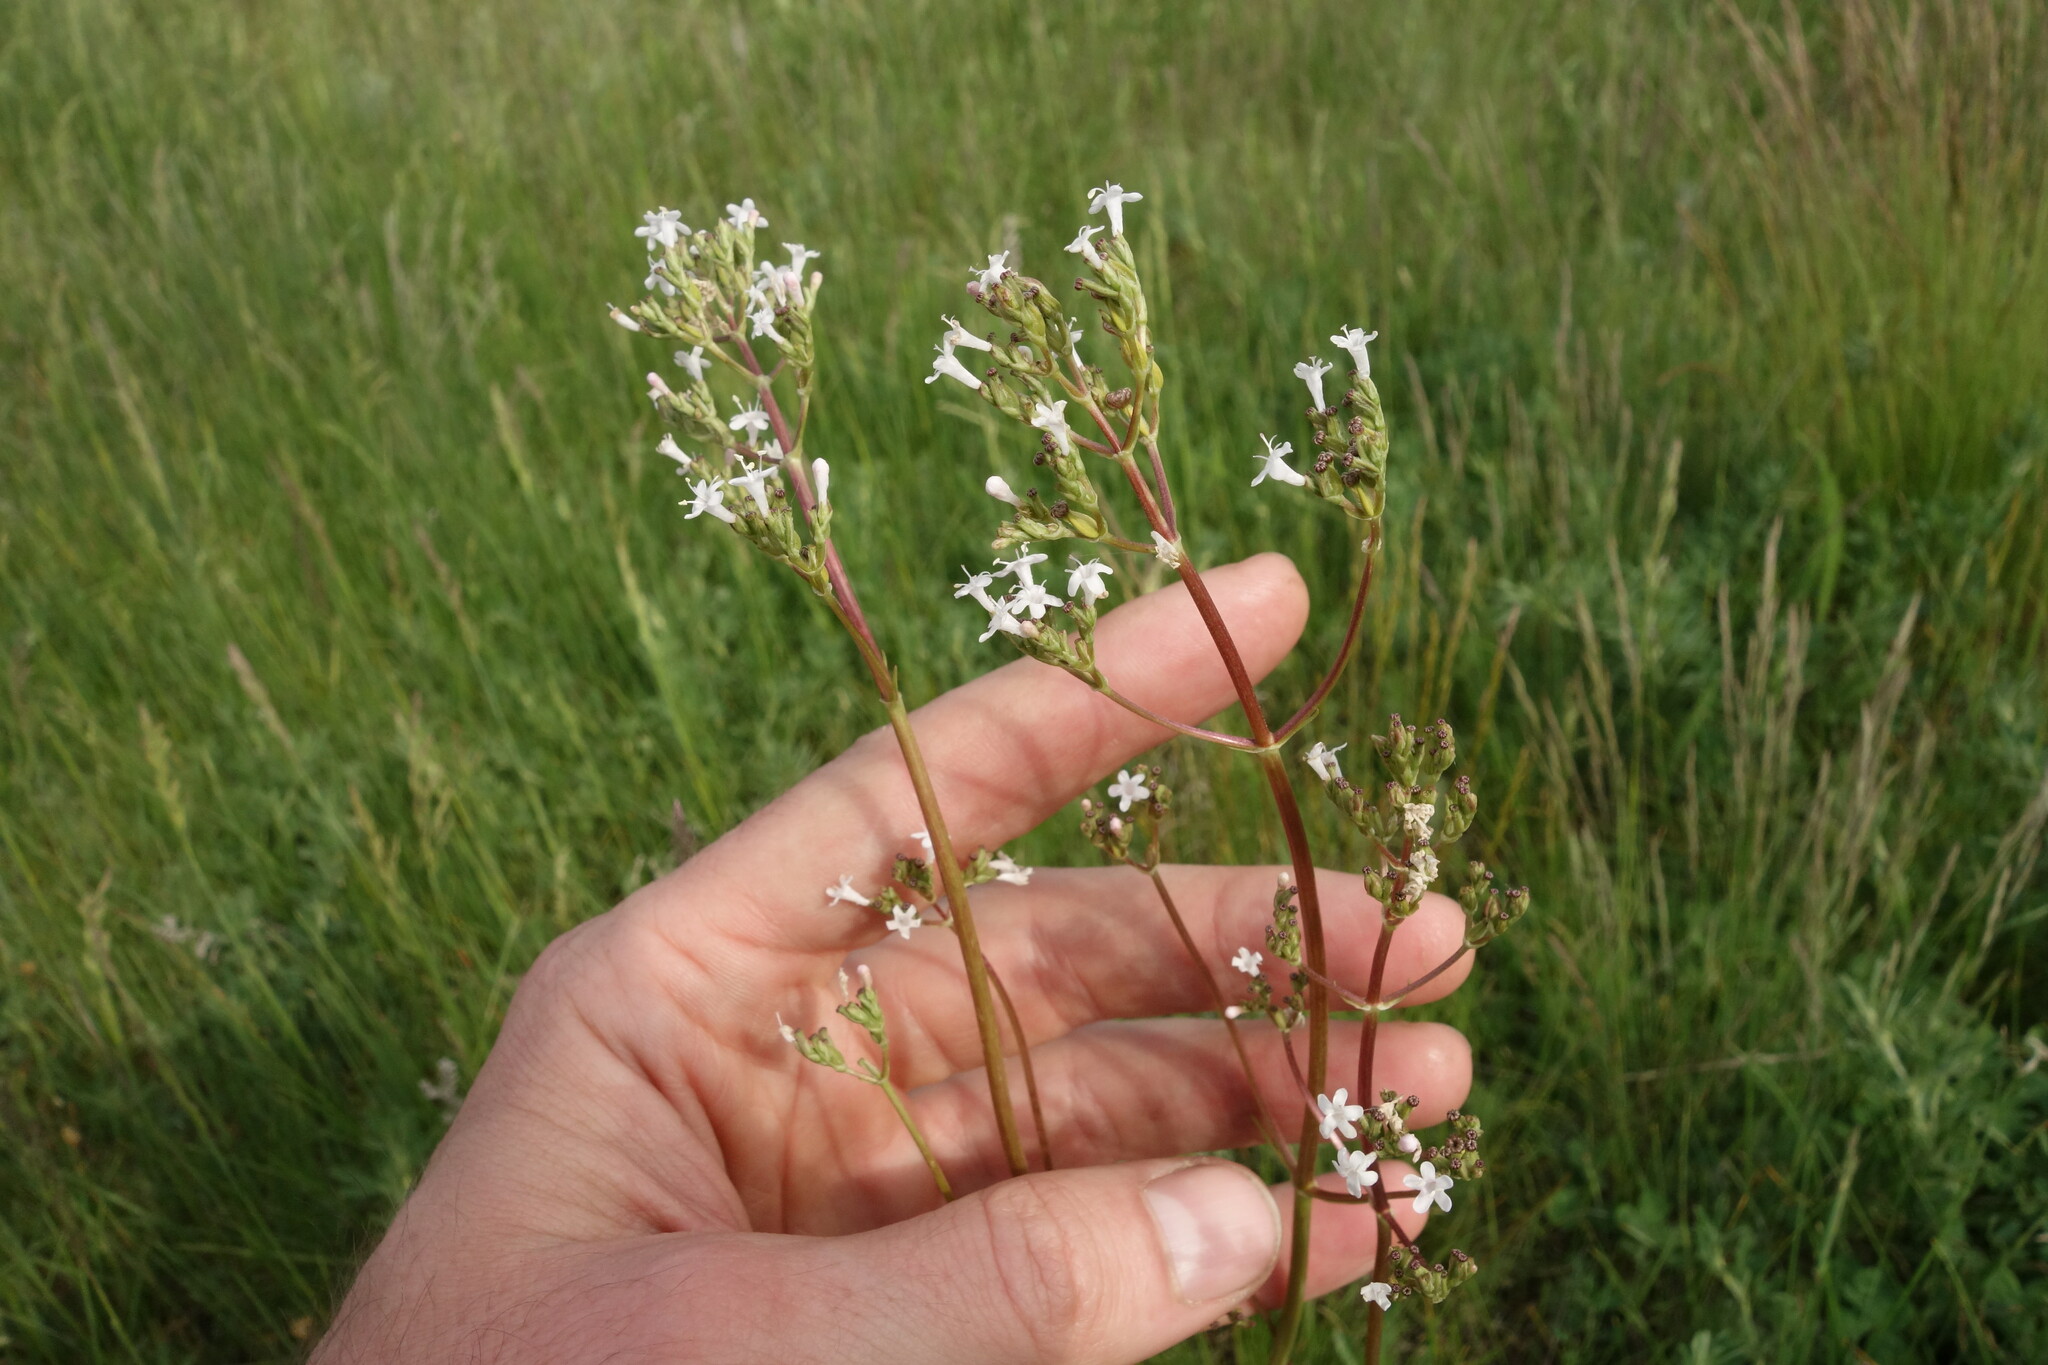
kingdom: Plantae
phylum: Tracheophyta
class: Magnoliopsida
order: Dipsacales
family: Caprifoliaceae
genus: Valeriana
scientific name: Valeriana tuberosa
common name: Tuberous valerian
